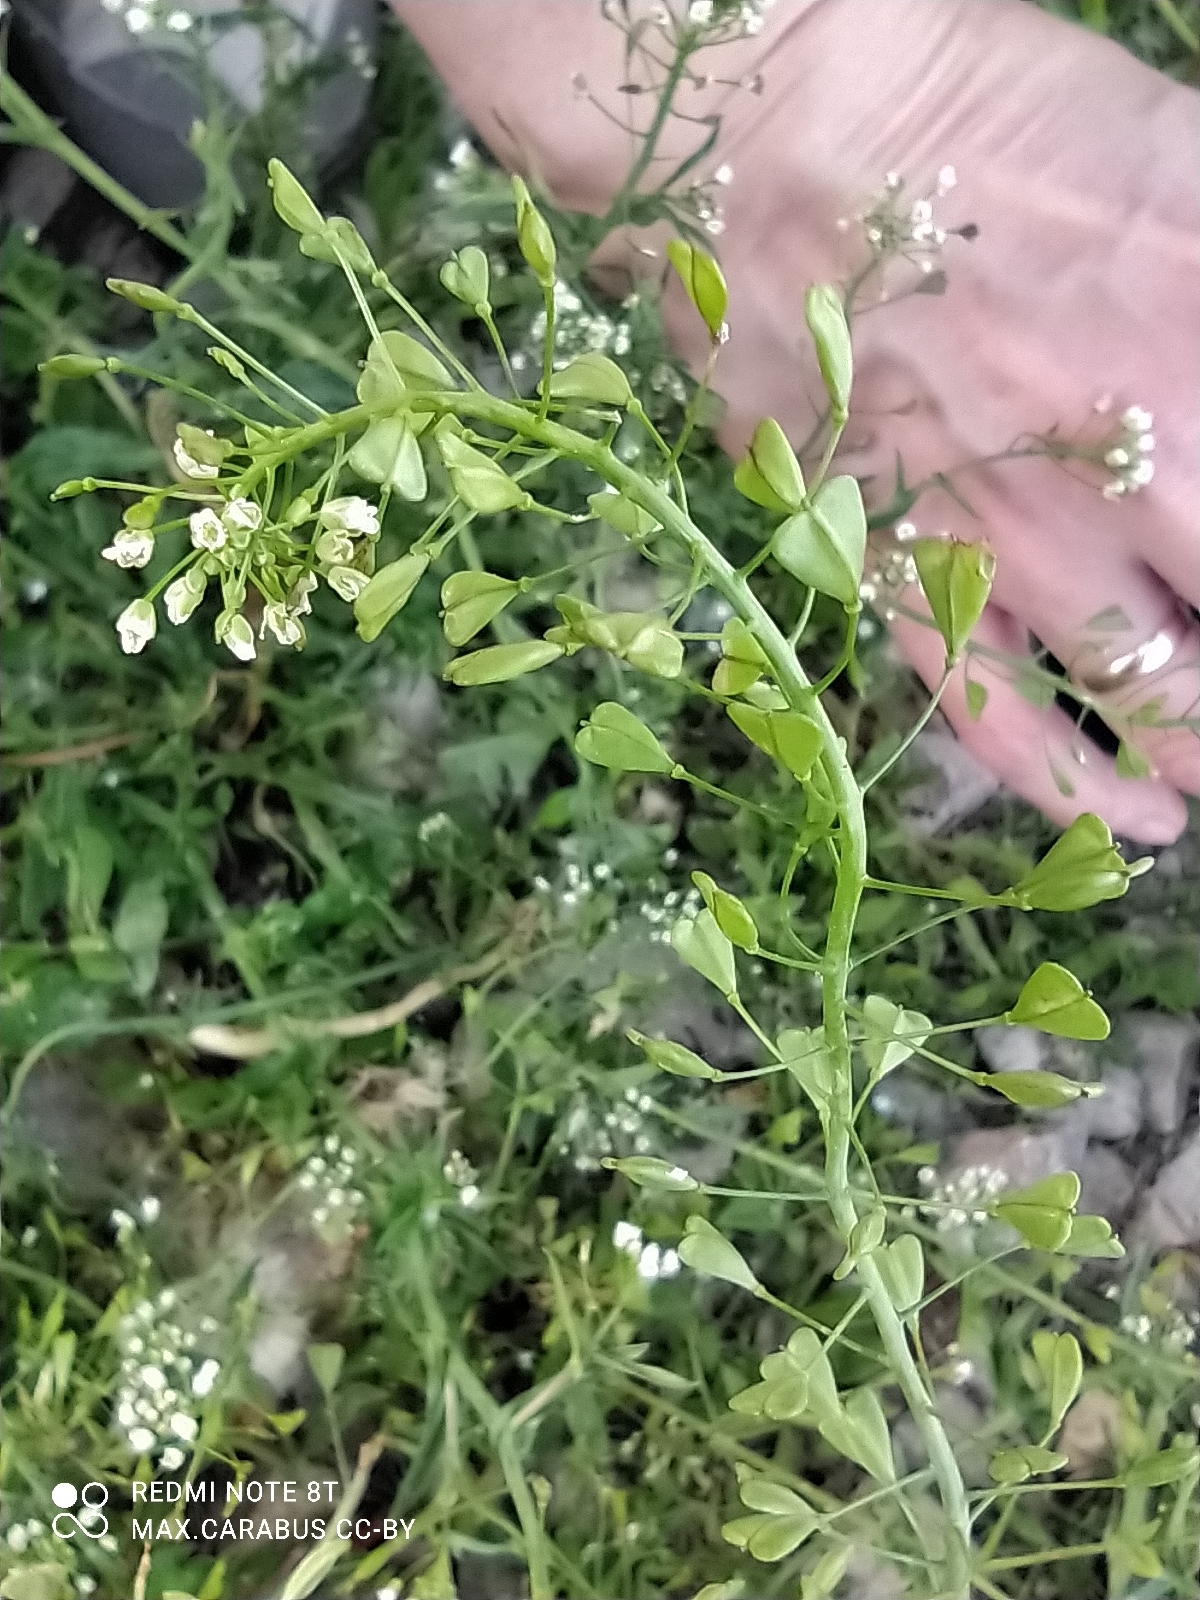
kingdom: Plantae
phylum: Tracheophyta
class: Magnoliopsida
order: Brassicales
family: Brassicaceae
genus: Capsella
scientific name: Capsella bursa-pastoris
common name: Shepherd's purse
